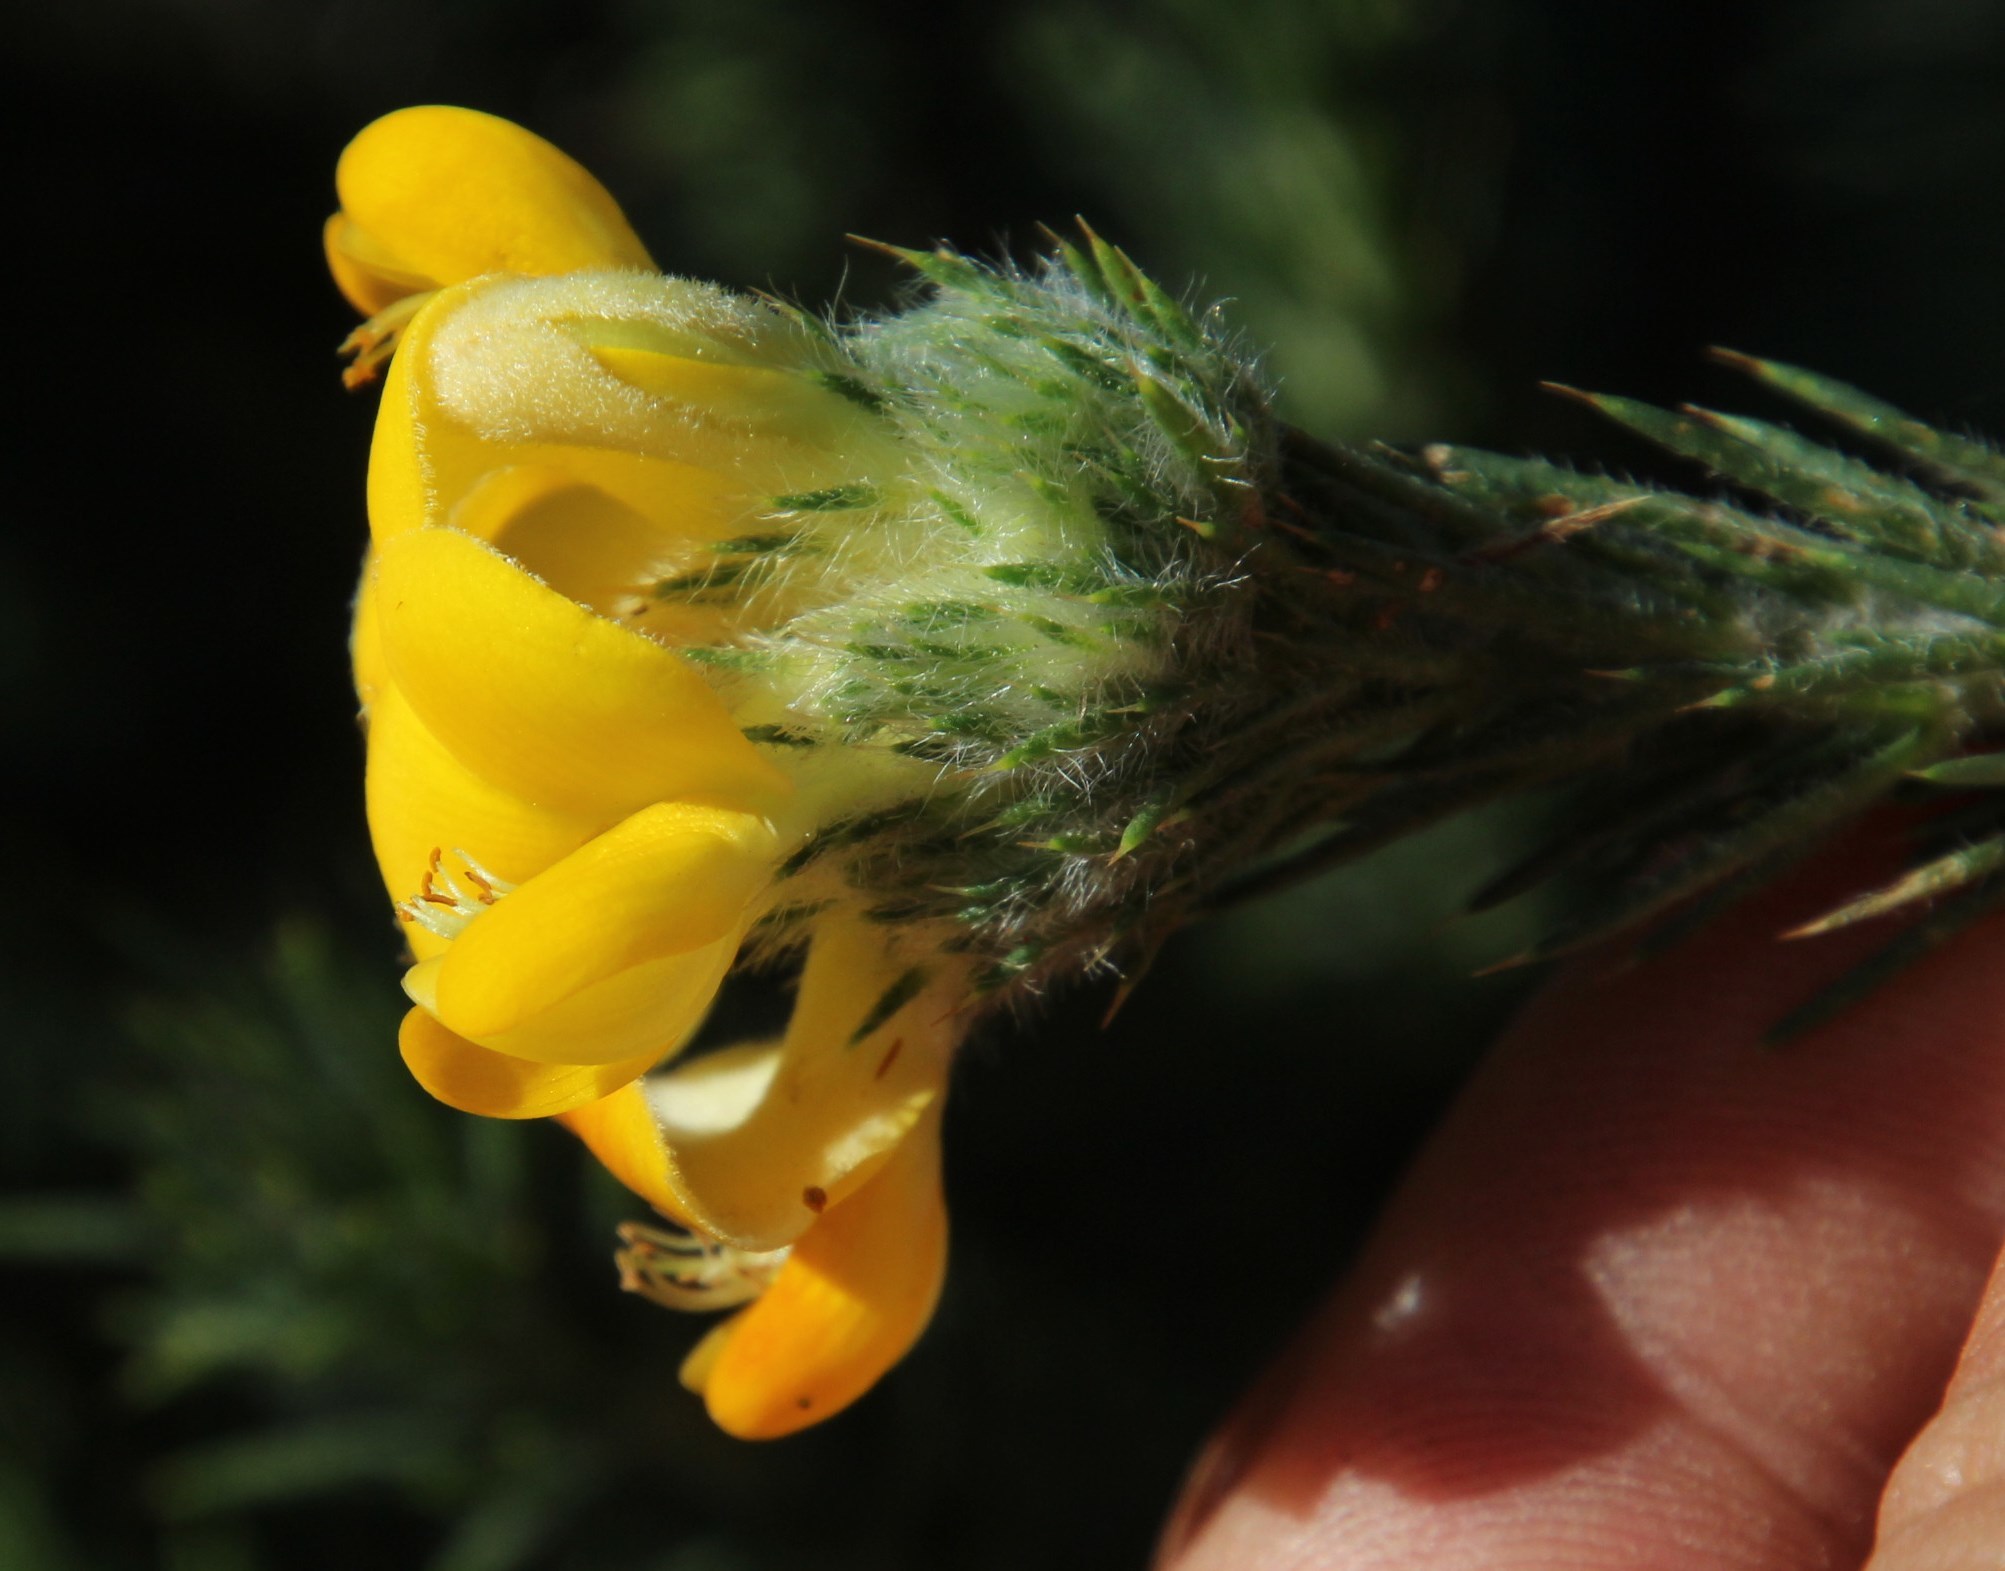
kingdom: Plantae
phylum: Tracheophyta
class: Magnoliopsida
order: Fabales
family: Fabaceae
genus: Aspalathus
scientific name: Aspalathus chenopoda
